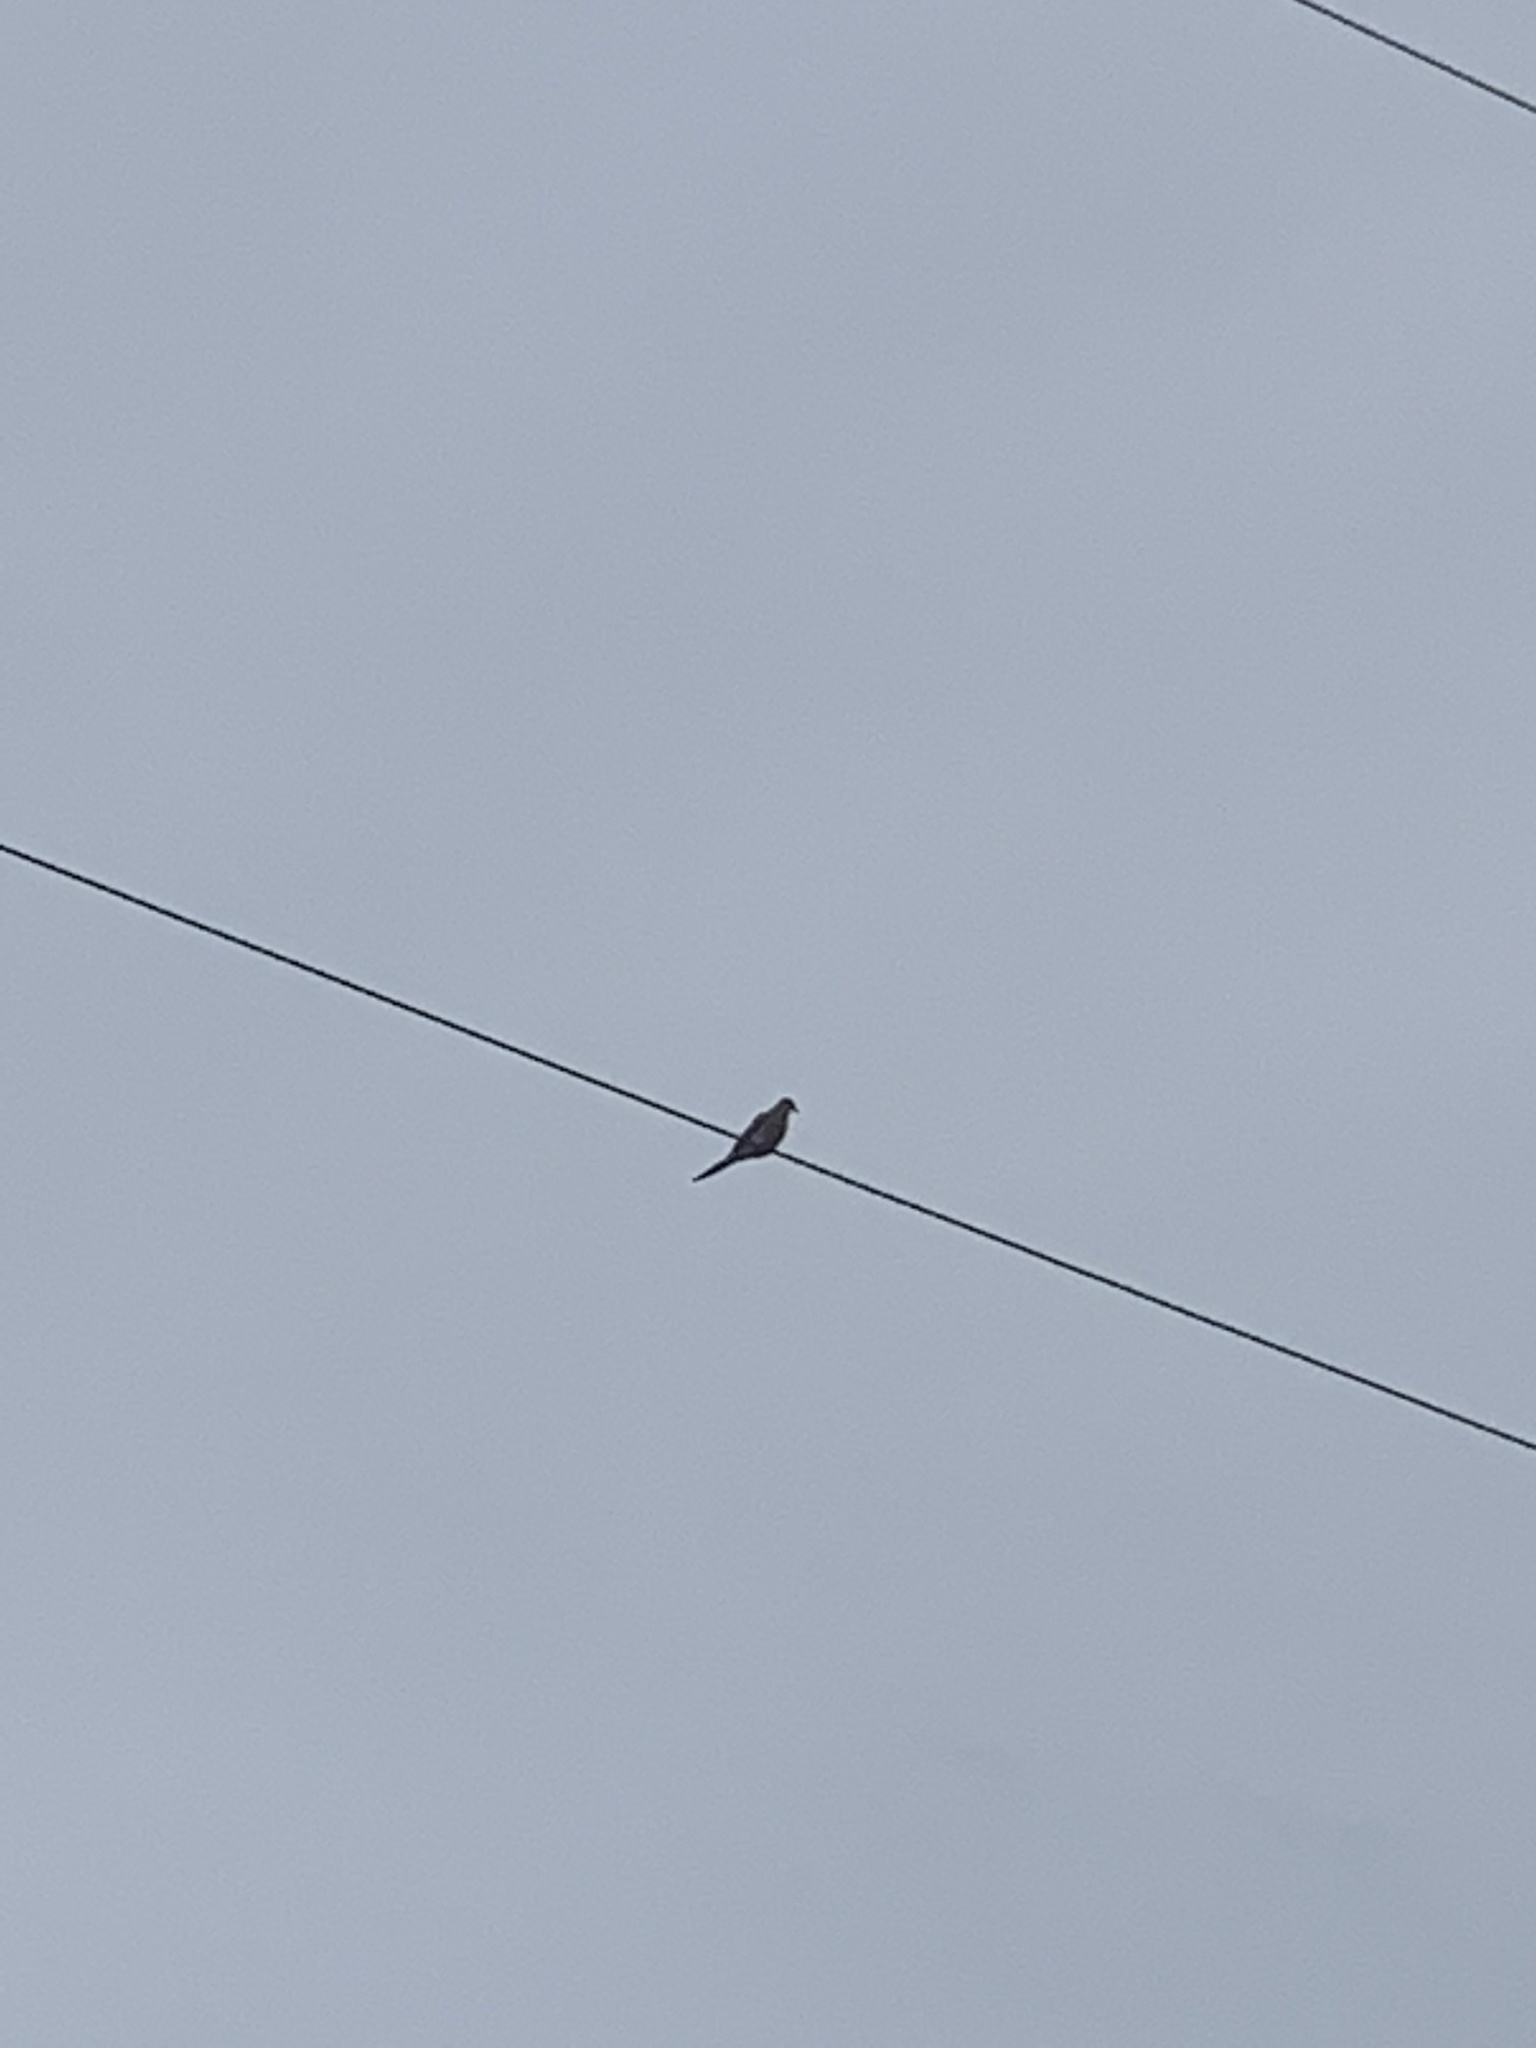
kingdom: Animalia
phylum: Chordata
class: Aves
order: Columbiformes
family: Columbidae
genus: Zenaida
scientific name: Zenaida macroura
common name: Mourning dove
